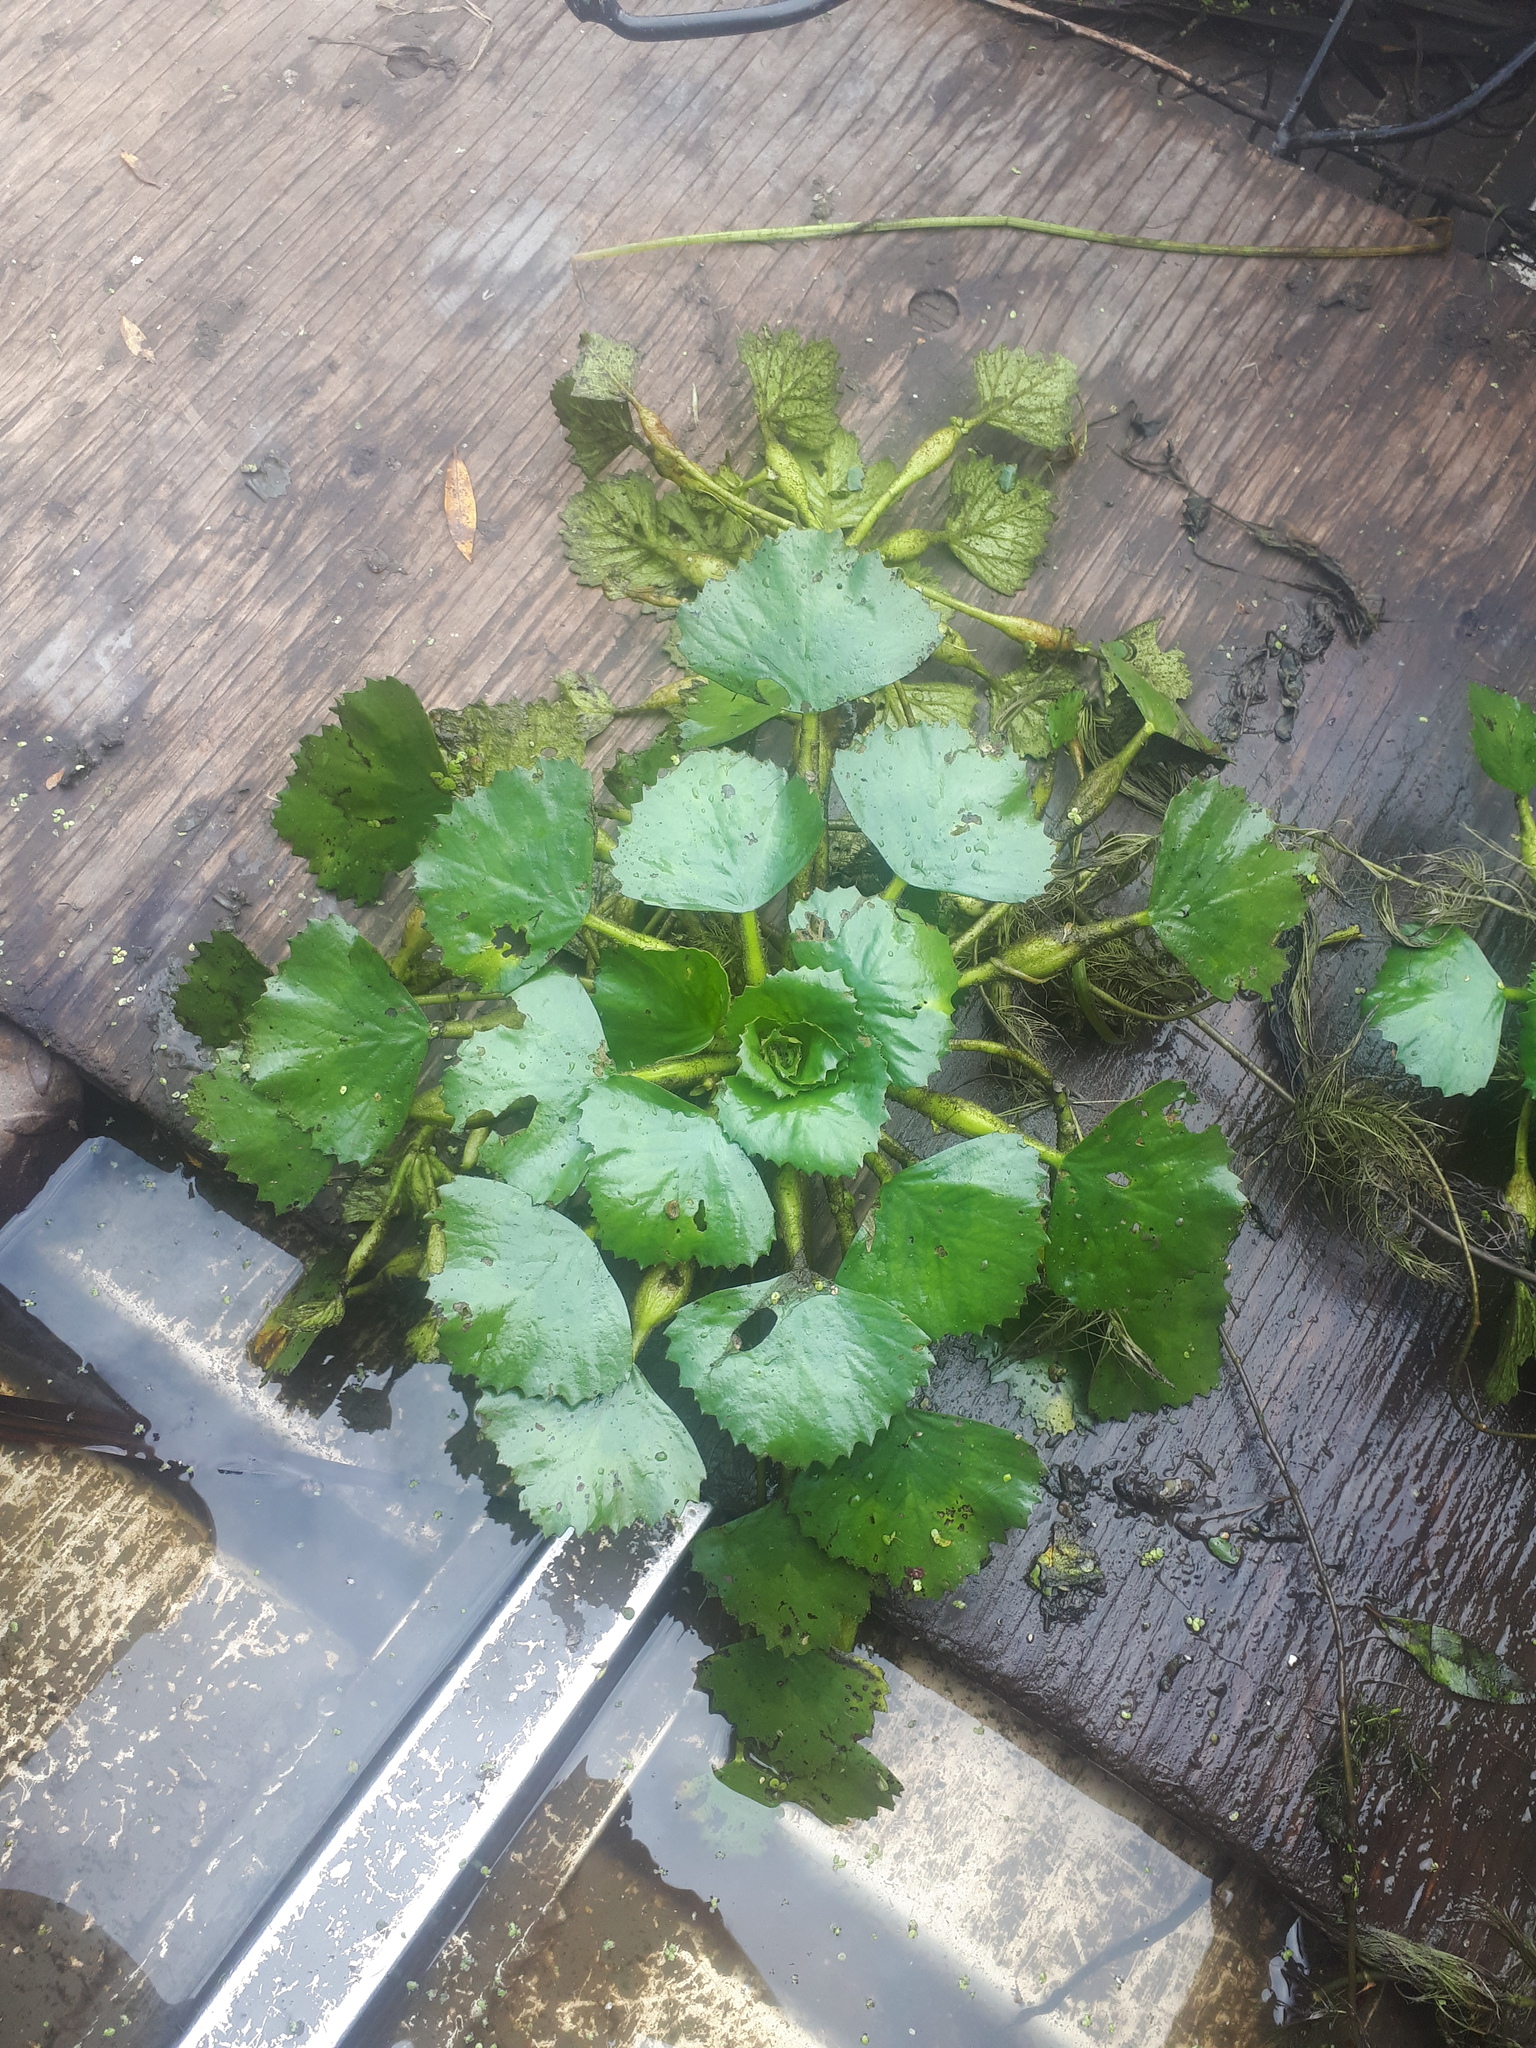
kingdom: Plantae
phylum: Tracheophyta
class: Magnoliopsida
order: Myrtales
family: Lythraceae
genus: Trapa
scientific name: Trapa natans
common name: Water chestnut
